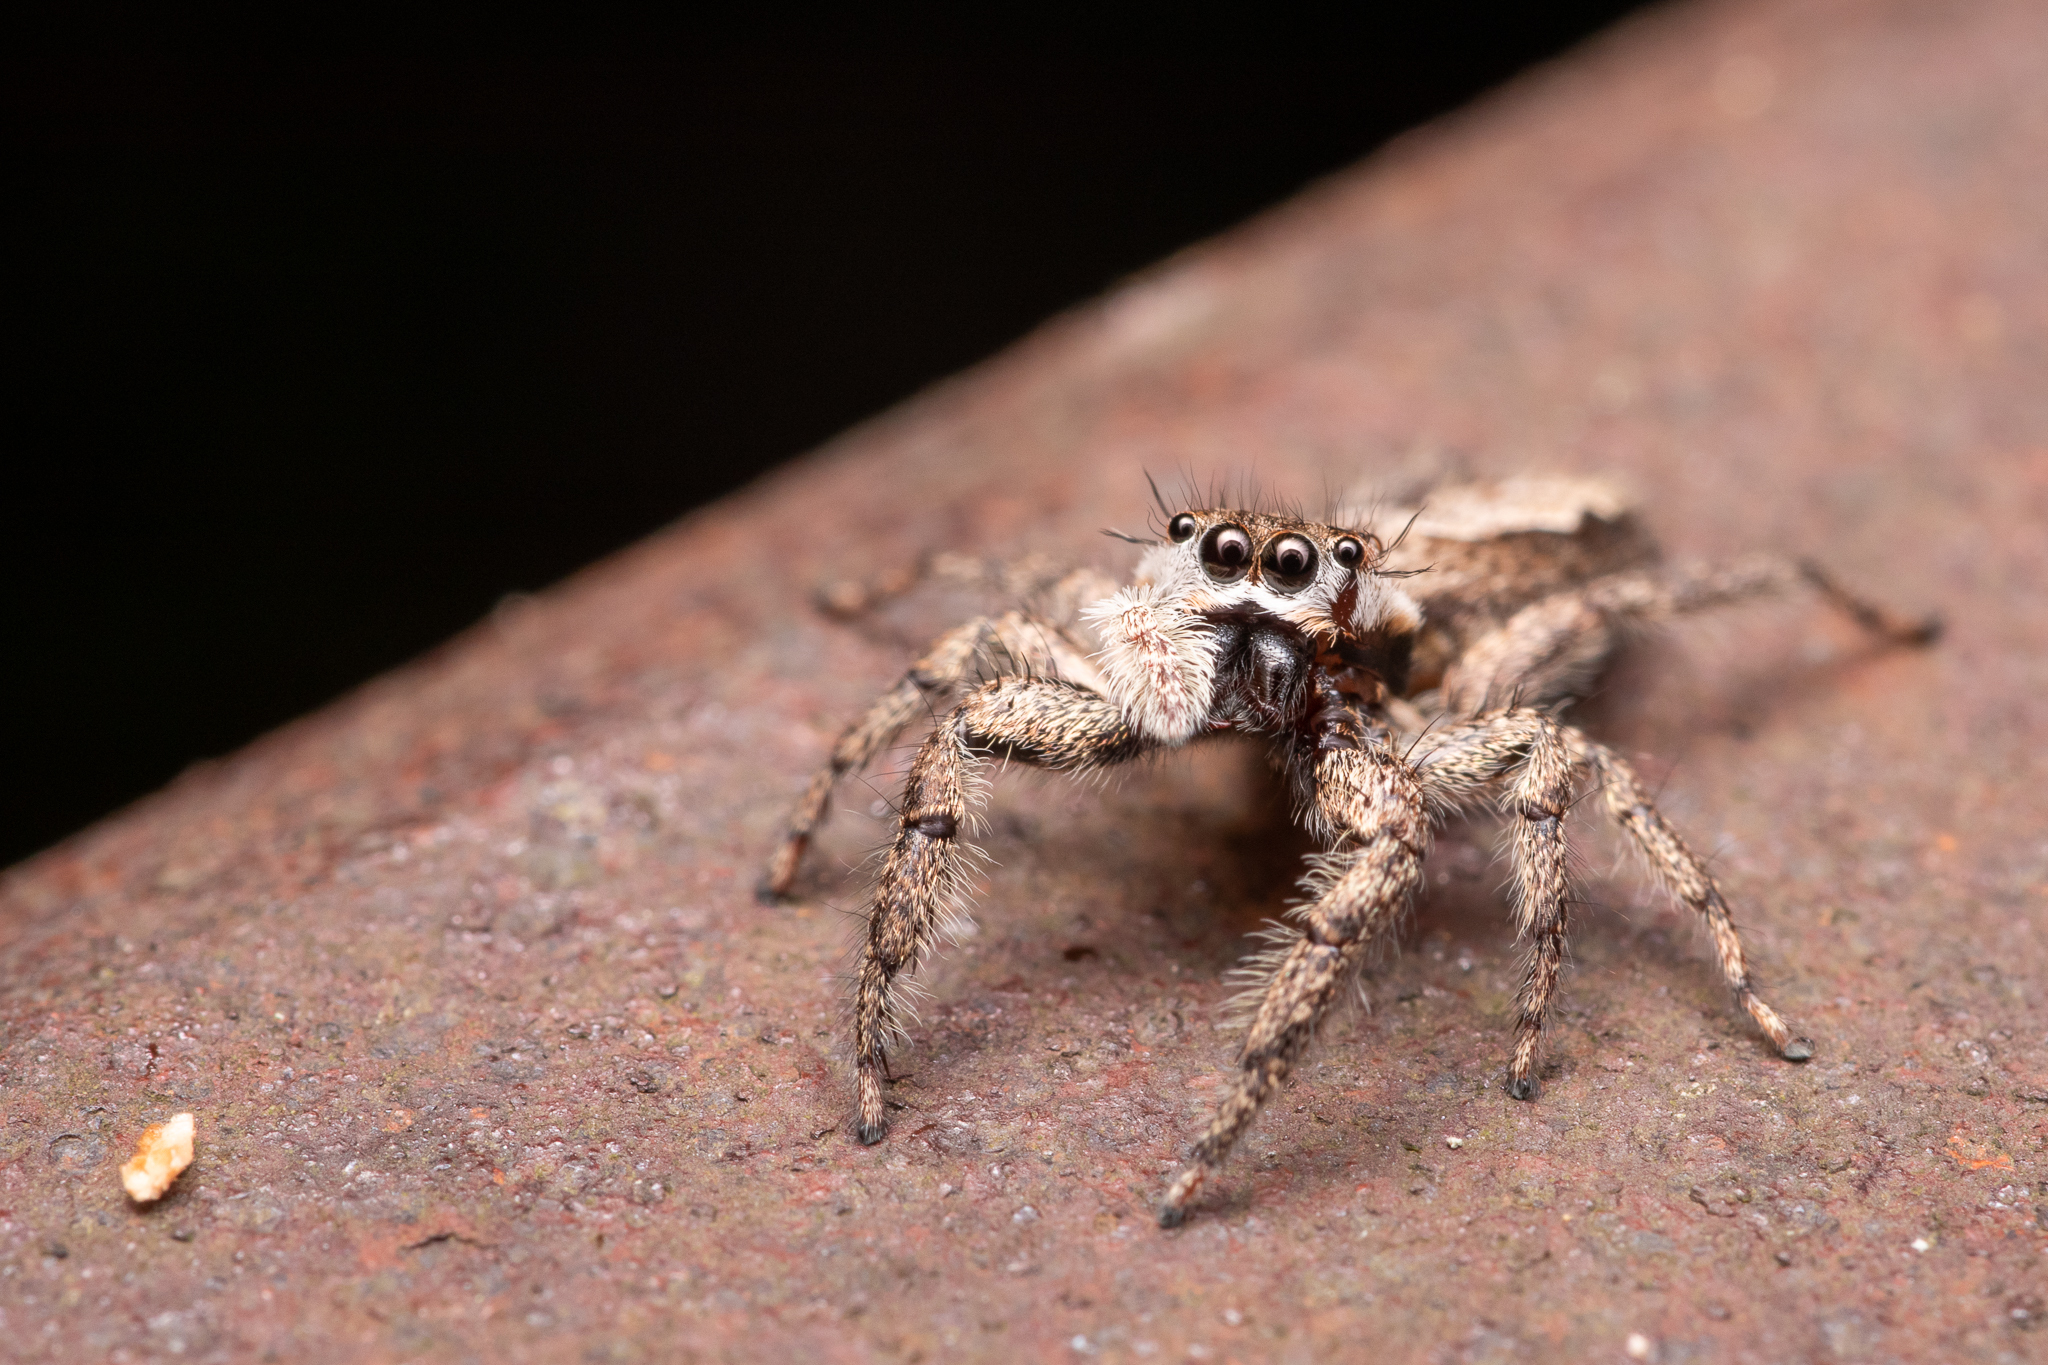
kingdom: Animalia
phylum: Arthropoda
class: Arachnida
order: Araneae
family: Salticidae
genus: Platycryptus
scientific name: Platycryptus undatus
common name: Tan jumping spider
